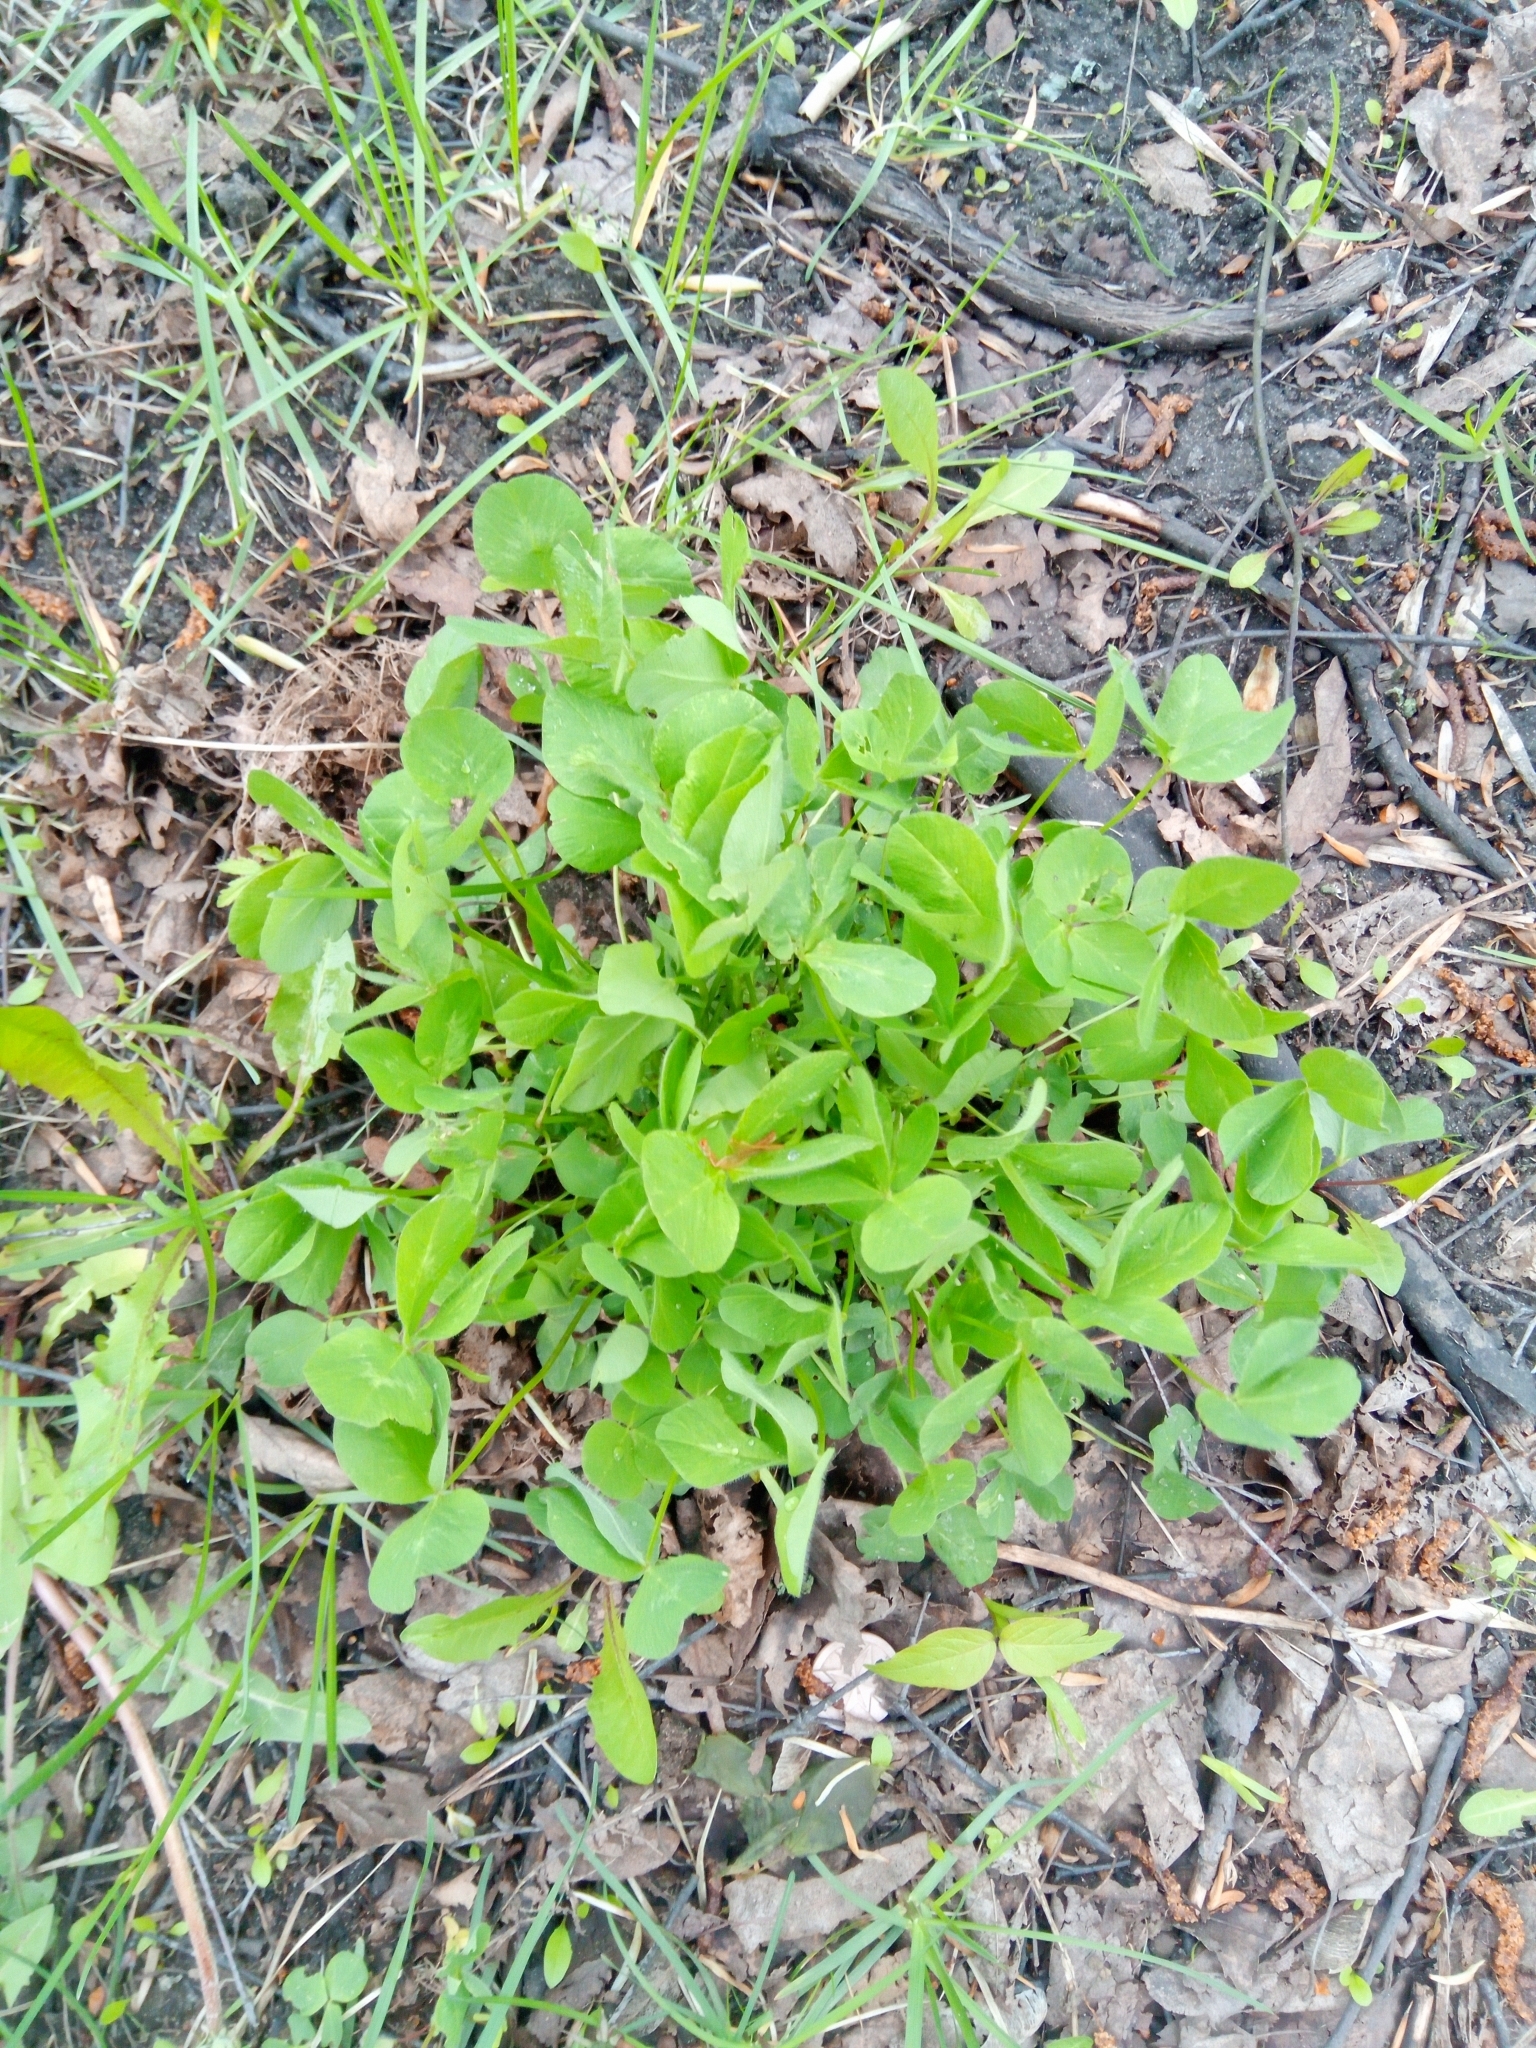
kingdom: Plantae
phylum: Tracheophyta
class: Magnoliopsida
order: Fabales
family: Fabaceae
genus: Trifolium
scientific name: Trifolium pratense
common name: Red clover
